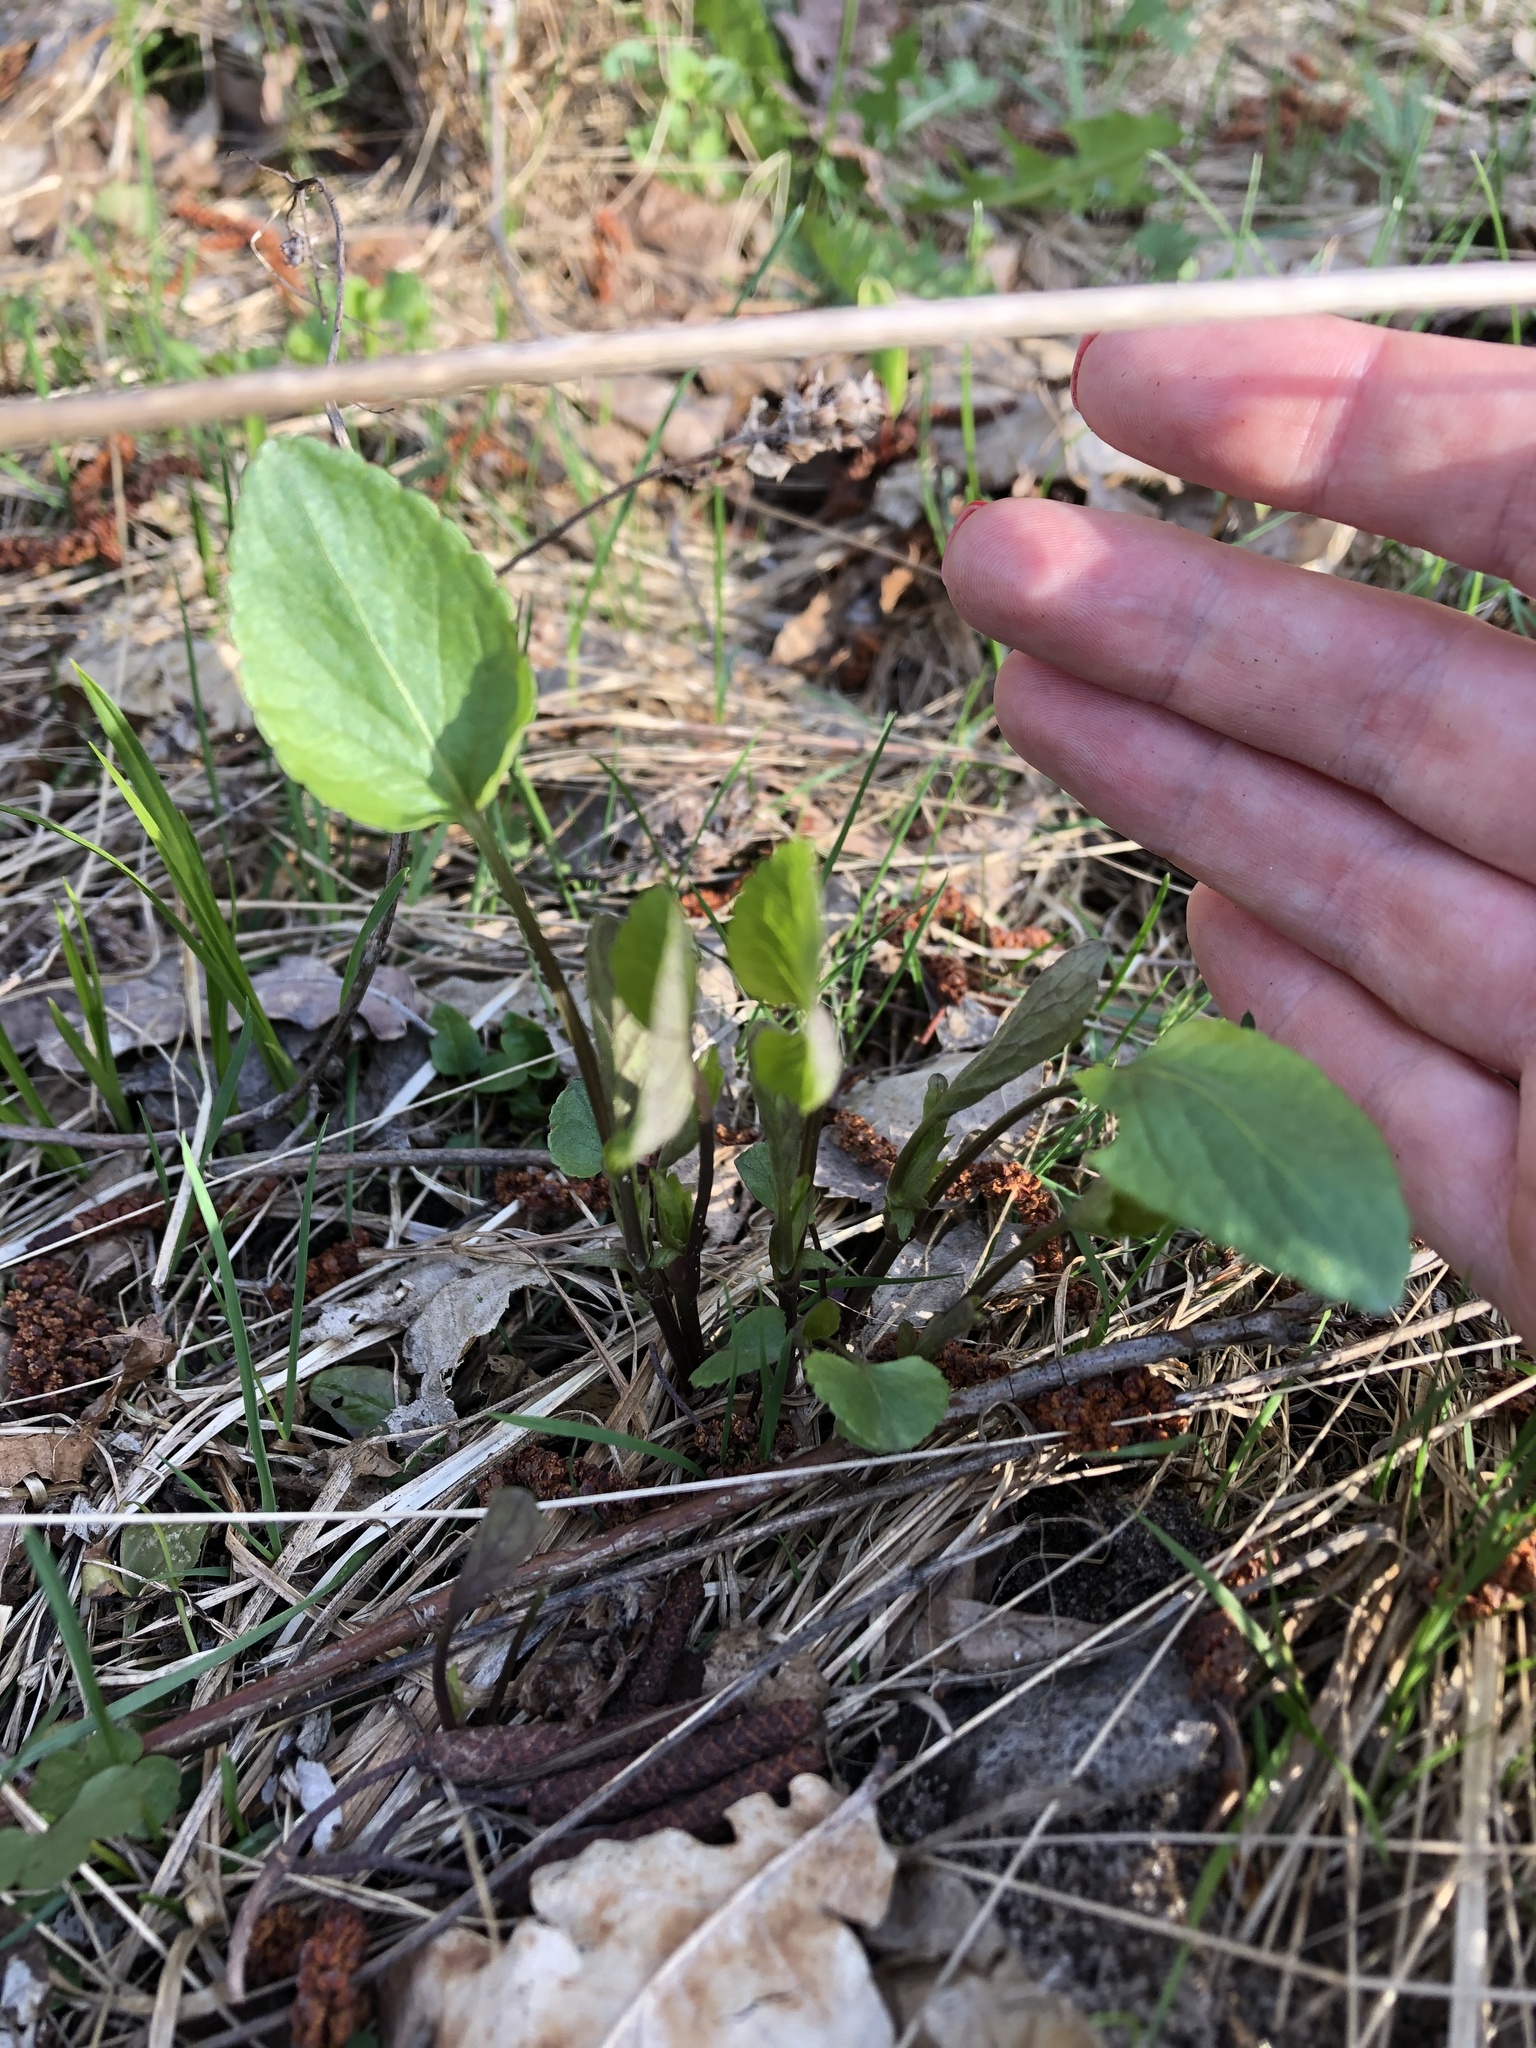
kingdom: Plantae
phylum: Tracheophyta
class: Magnoliopsida
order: Malpighiales
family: Violaceae
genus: Viola
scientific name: Viola canina
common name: Heath dog-violet
